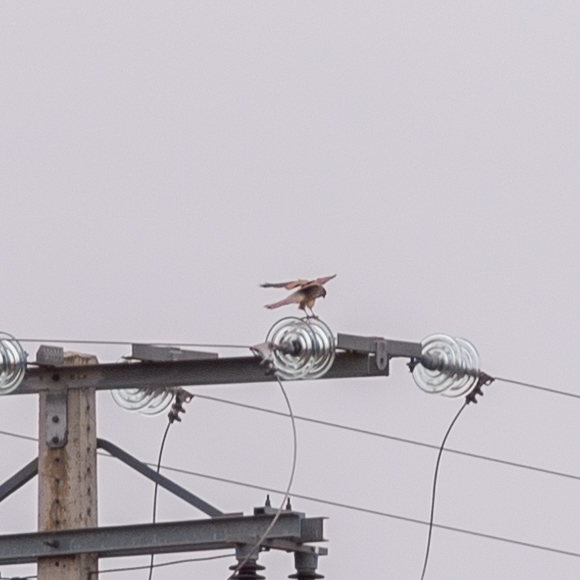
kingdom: Animalia
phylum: Chordata
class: Aves
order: Falconiformes
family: Falconidae
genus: Falco
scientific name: Falco tinnunculus
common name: Common kestrel
